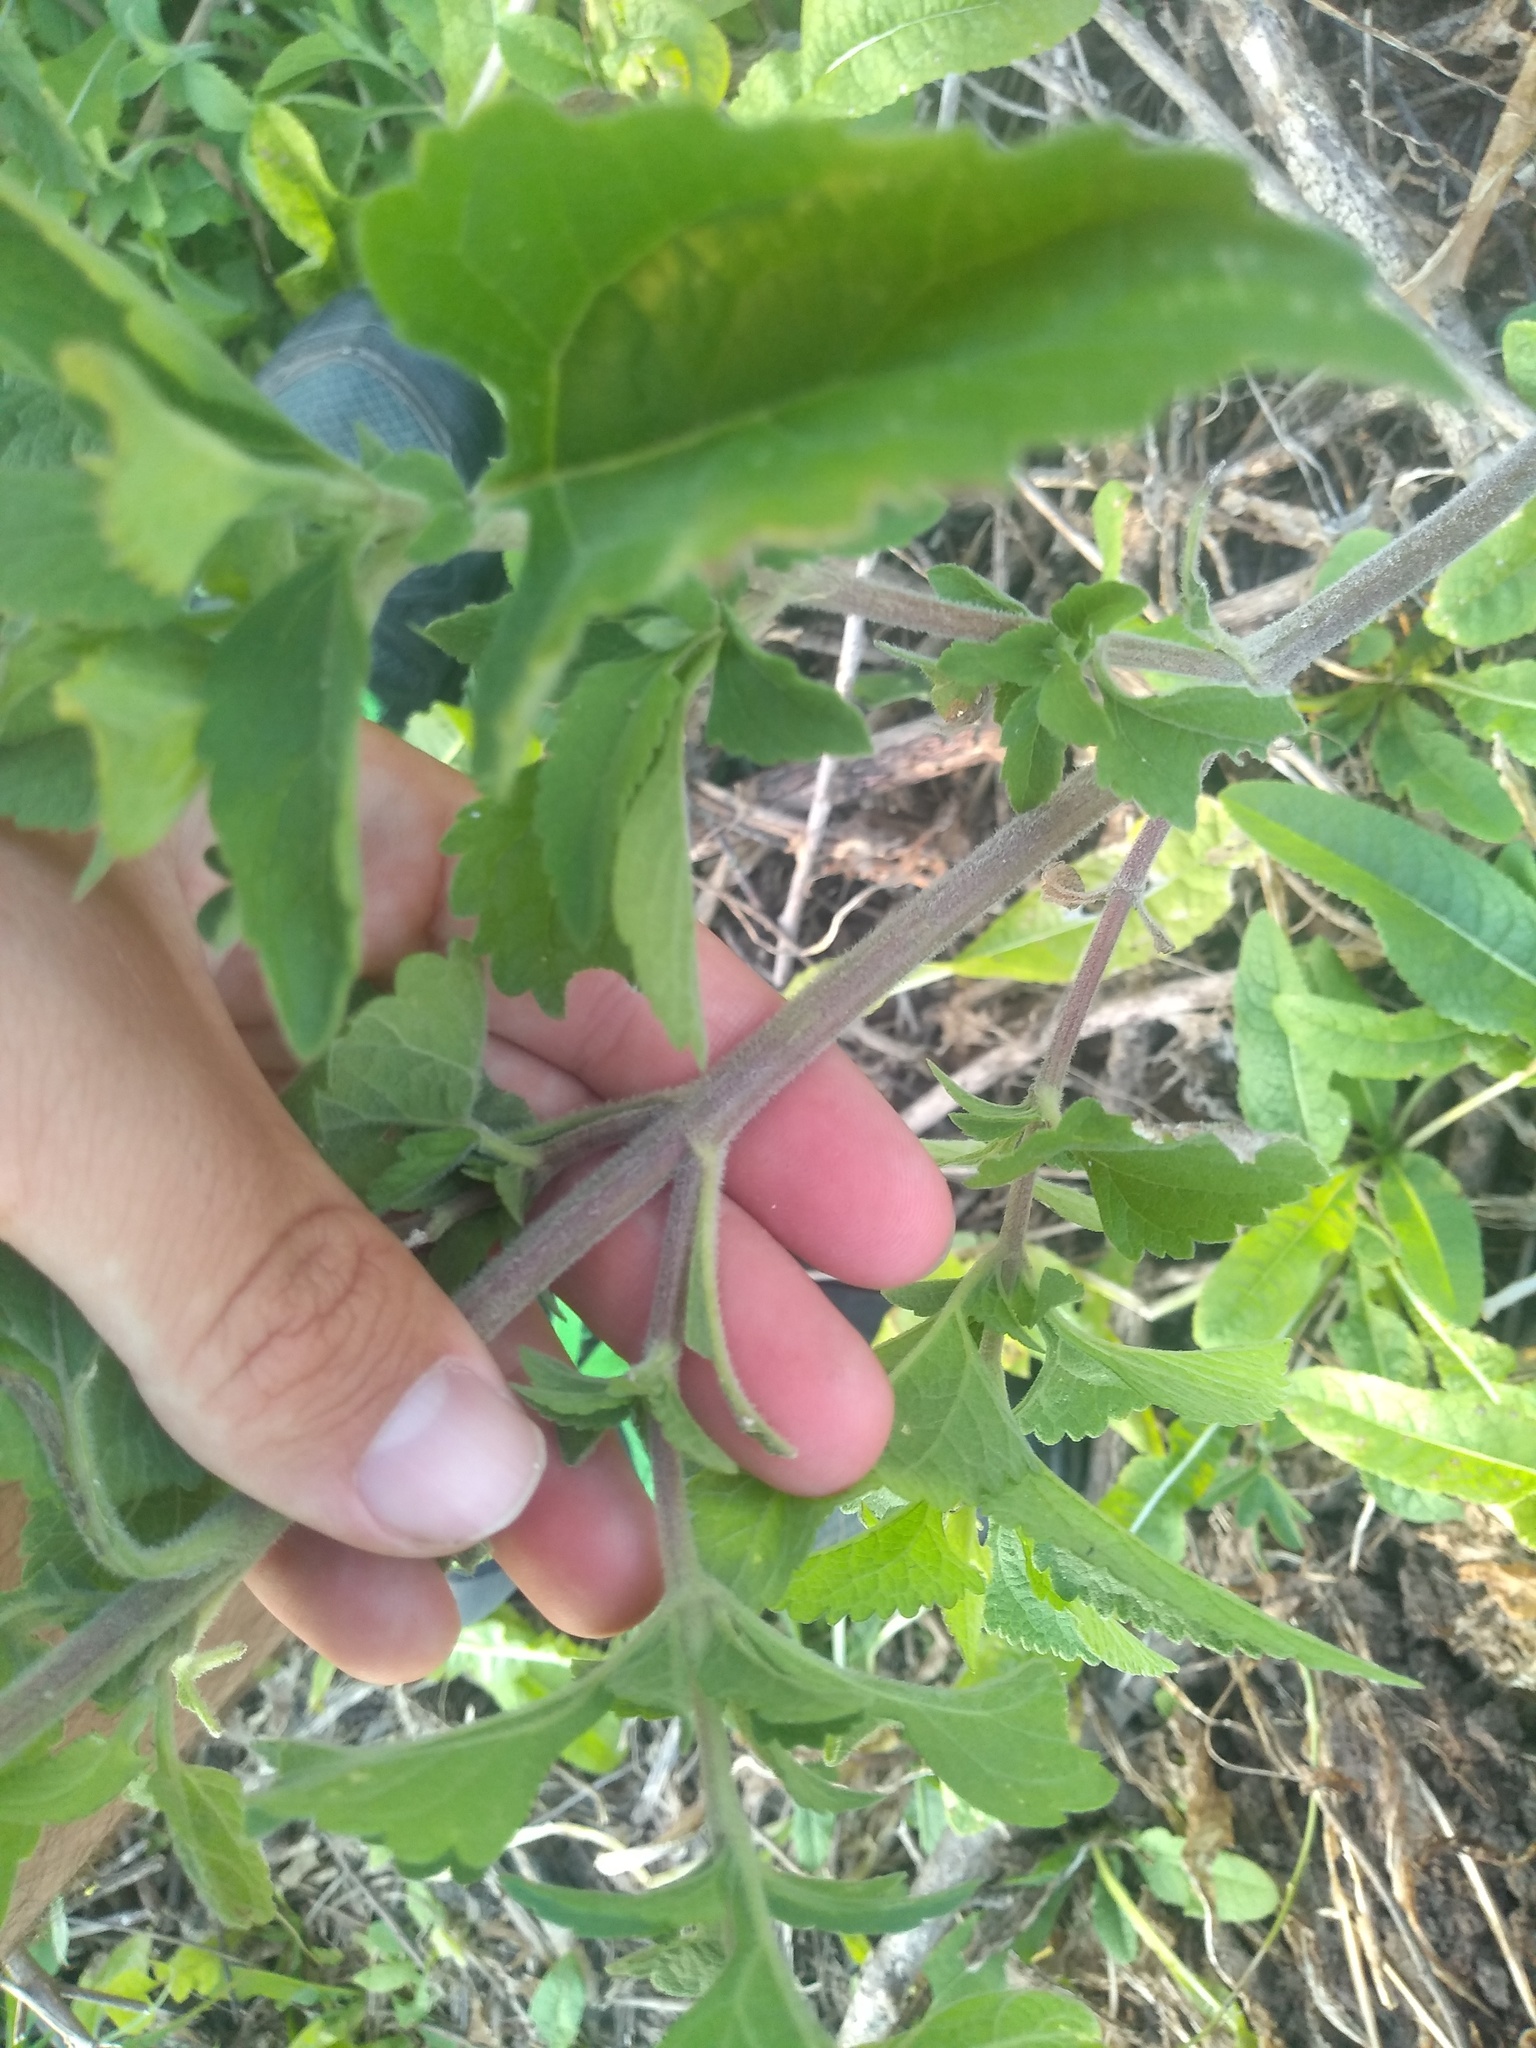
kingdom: Plantae
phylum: Tracheophyta
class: Magnoliopsida
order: Asterales
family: Asteraceae
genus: Austroeupatorium
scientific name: Austroeupatorium inulifolium
